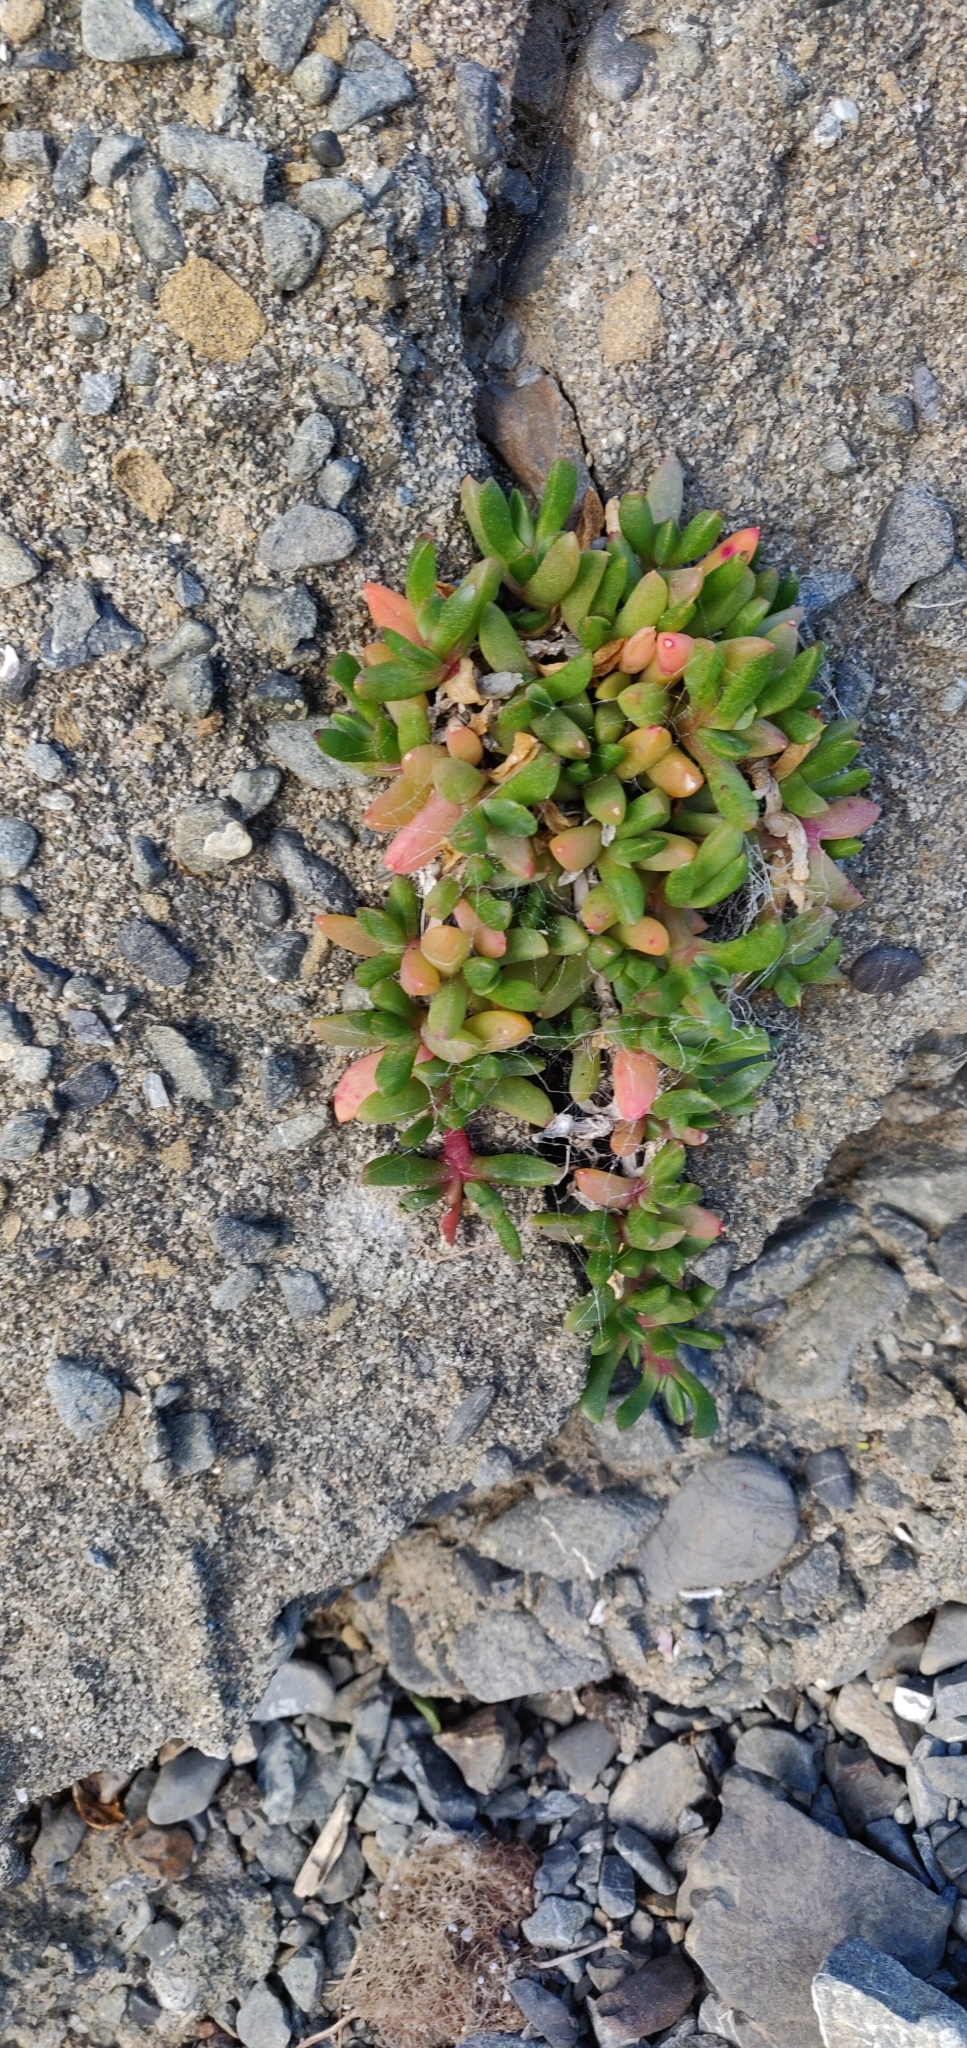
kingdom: Plantae
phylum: Tracheophyta
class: Magnoliopsida
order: Caryophyllales
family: Aizoaceae
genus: Disphyma
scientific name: Disphyma australe
